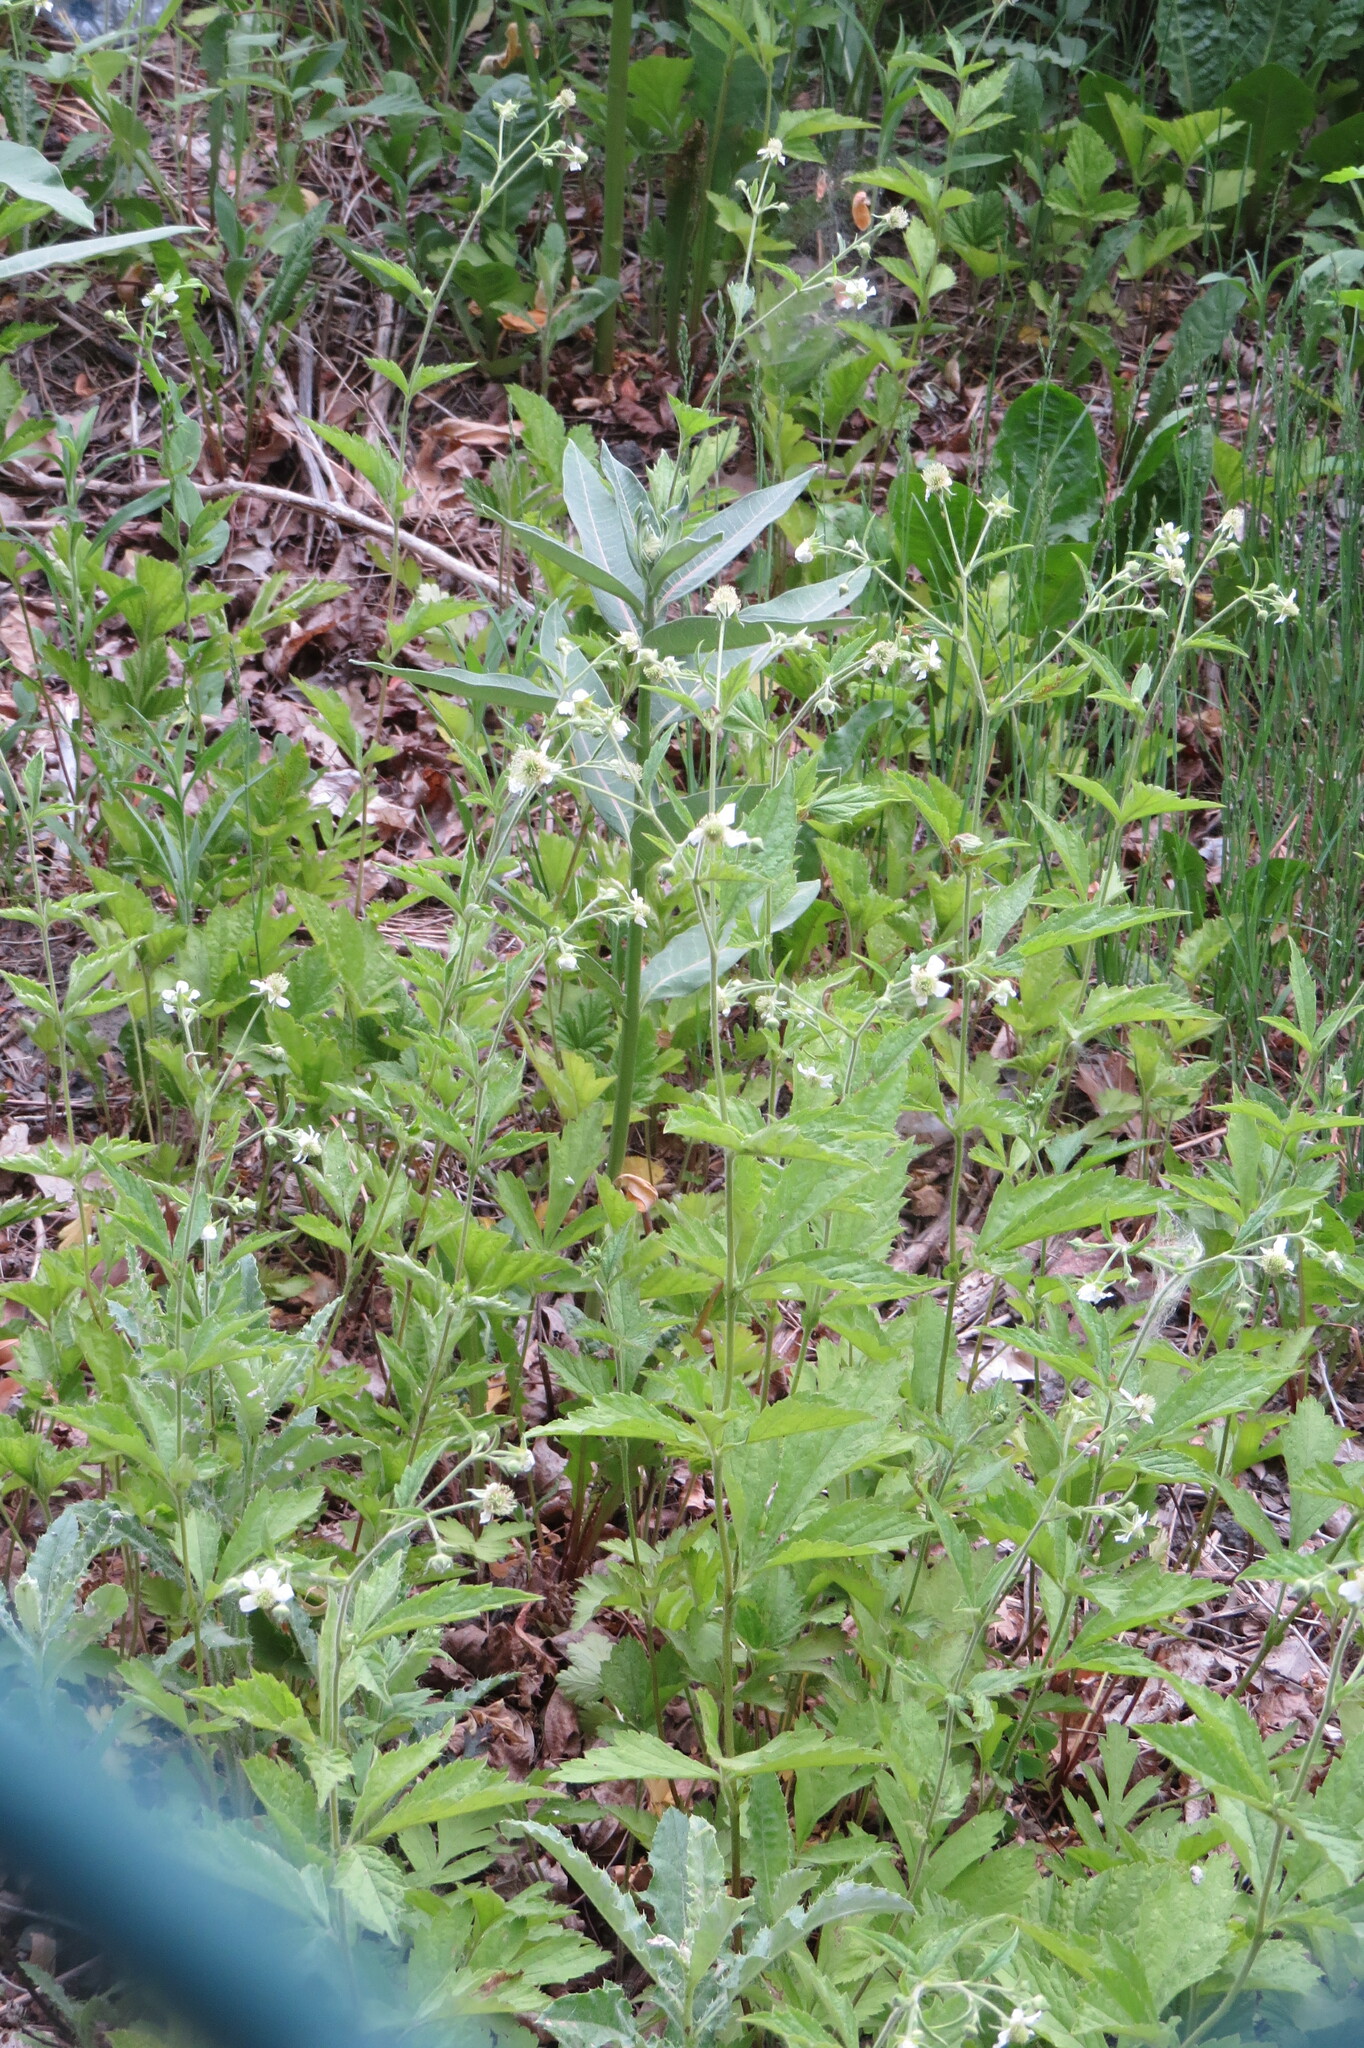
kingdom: Plantae
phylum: Tracheophyta
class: Magnoliopsida
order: Rosales
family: Rosaceae
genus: Geum
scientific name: Geum canadense
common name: White avens
